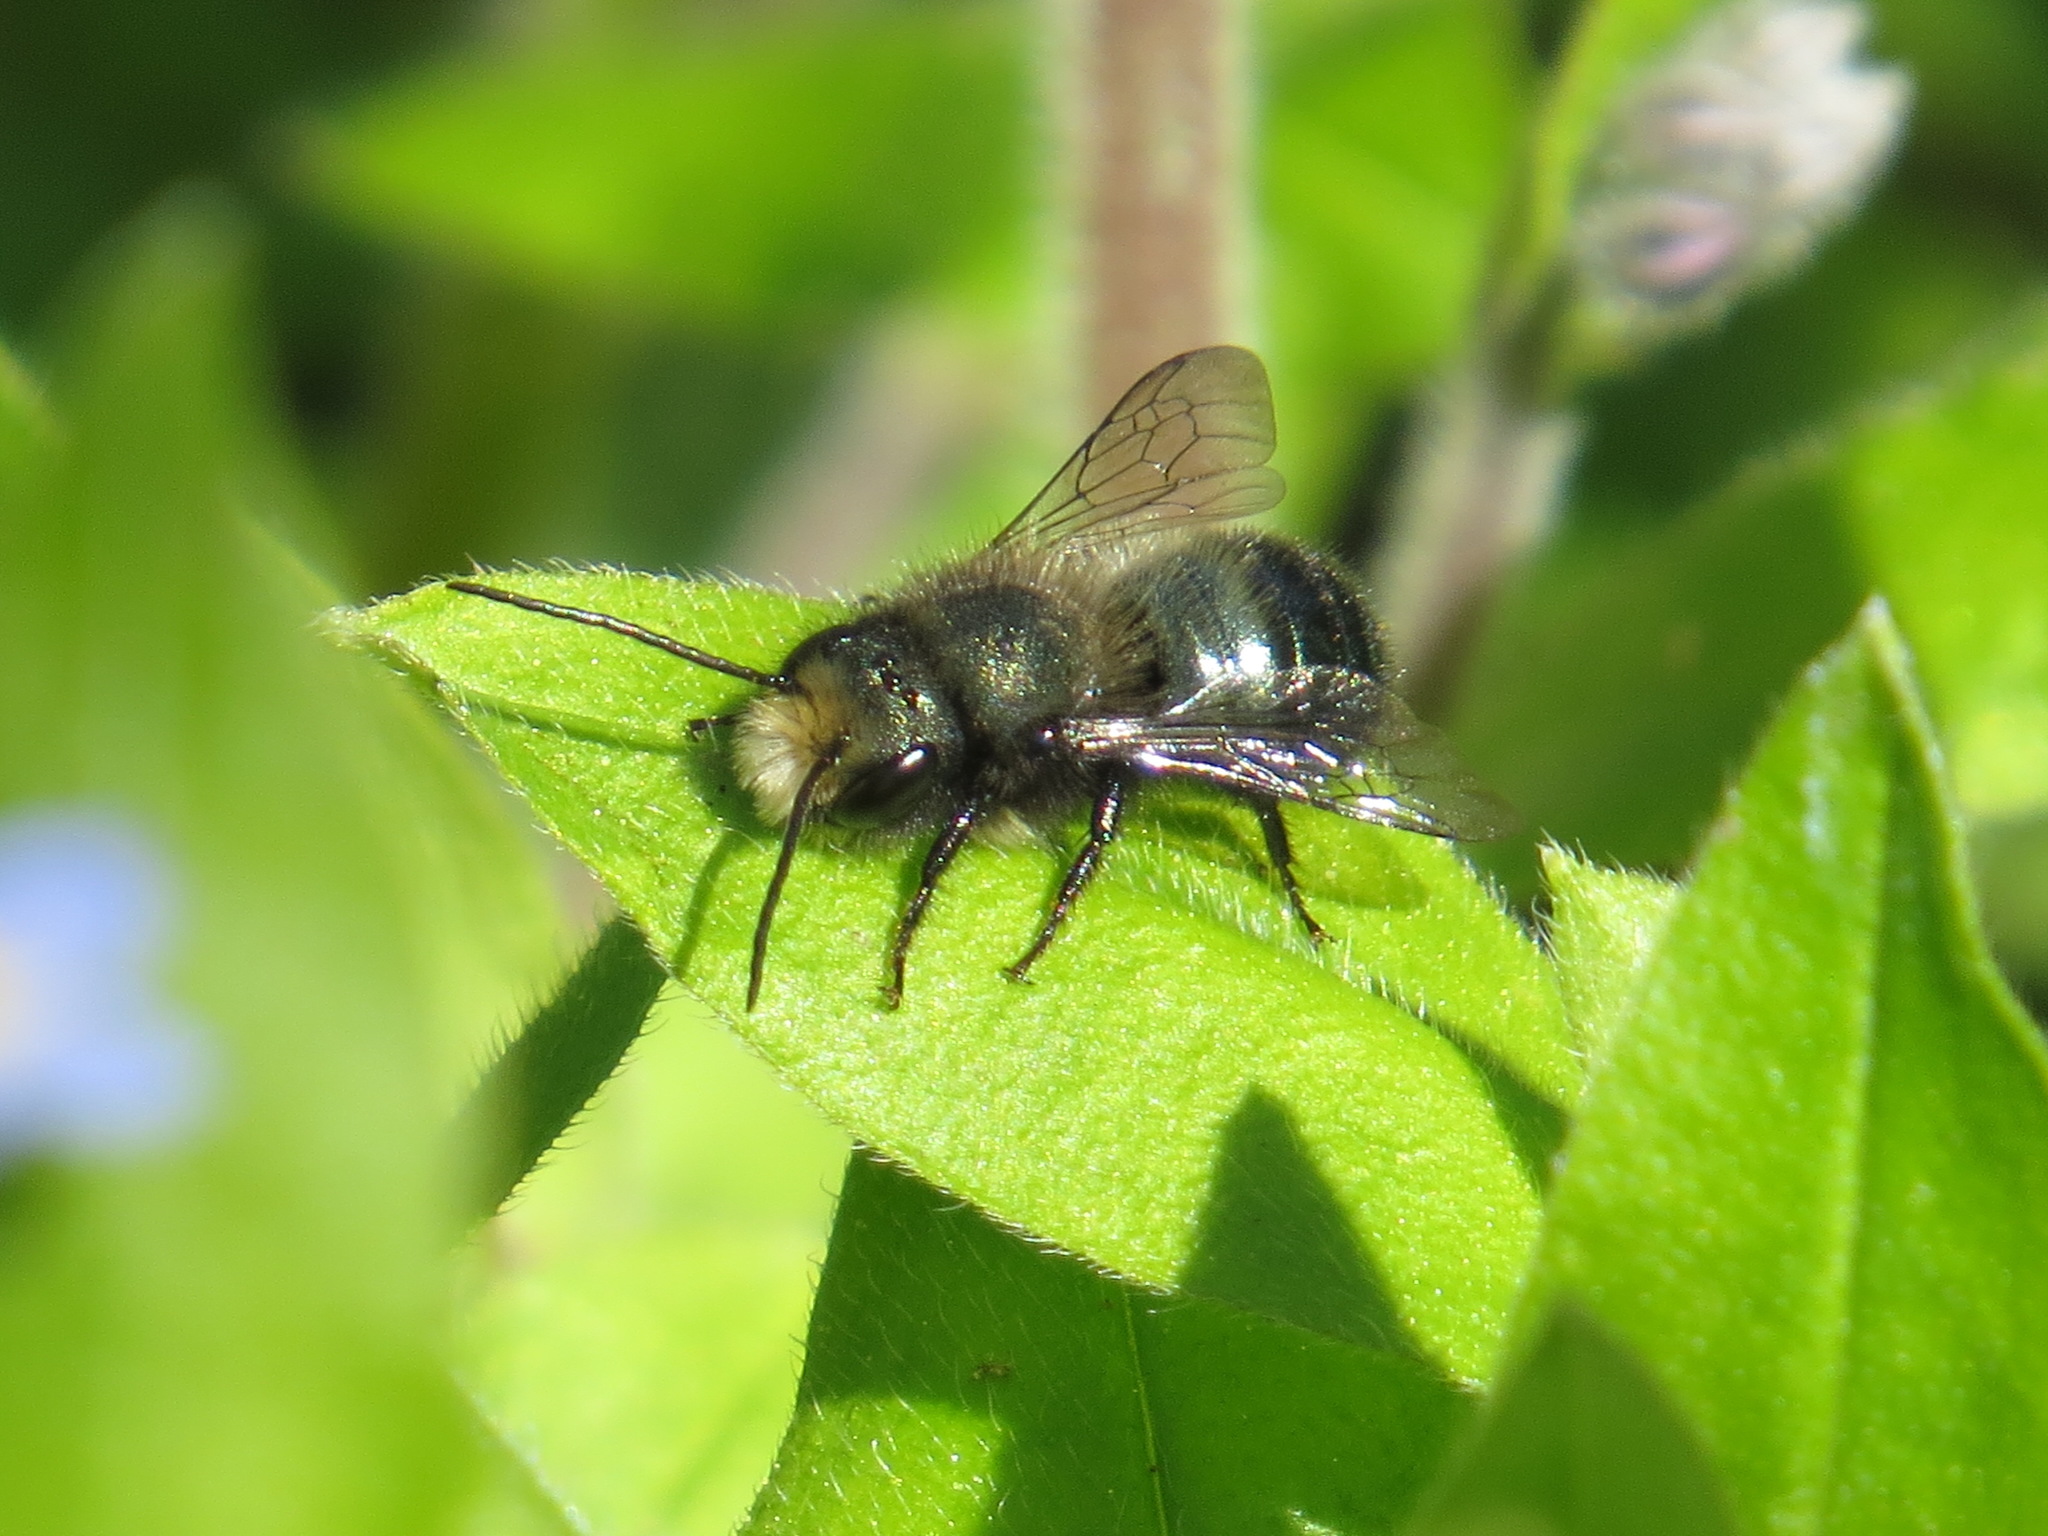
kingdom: Animalia
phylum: Arthropoda
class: Insecta
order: Hymenoptera
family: Megachilidae
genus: Osmia
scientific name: Osmia lignaria
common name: Blue orchard bee
